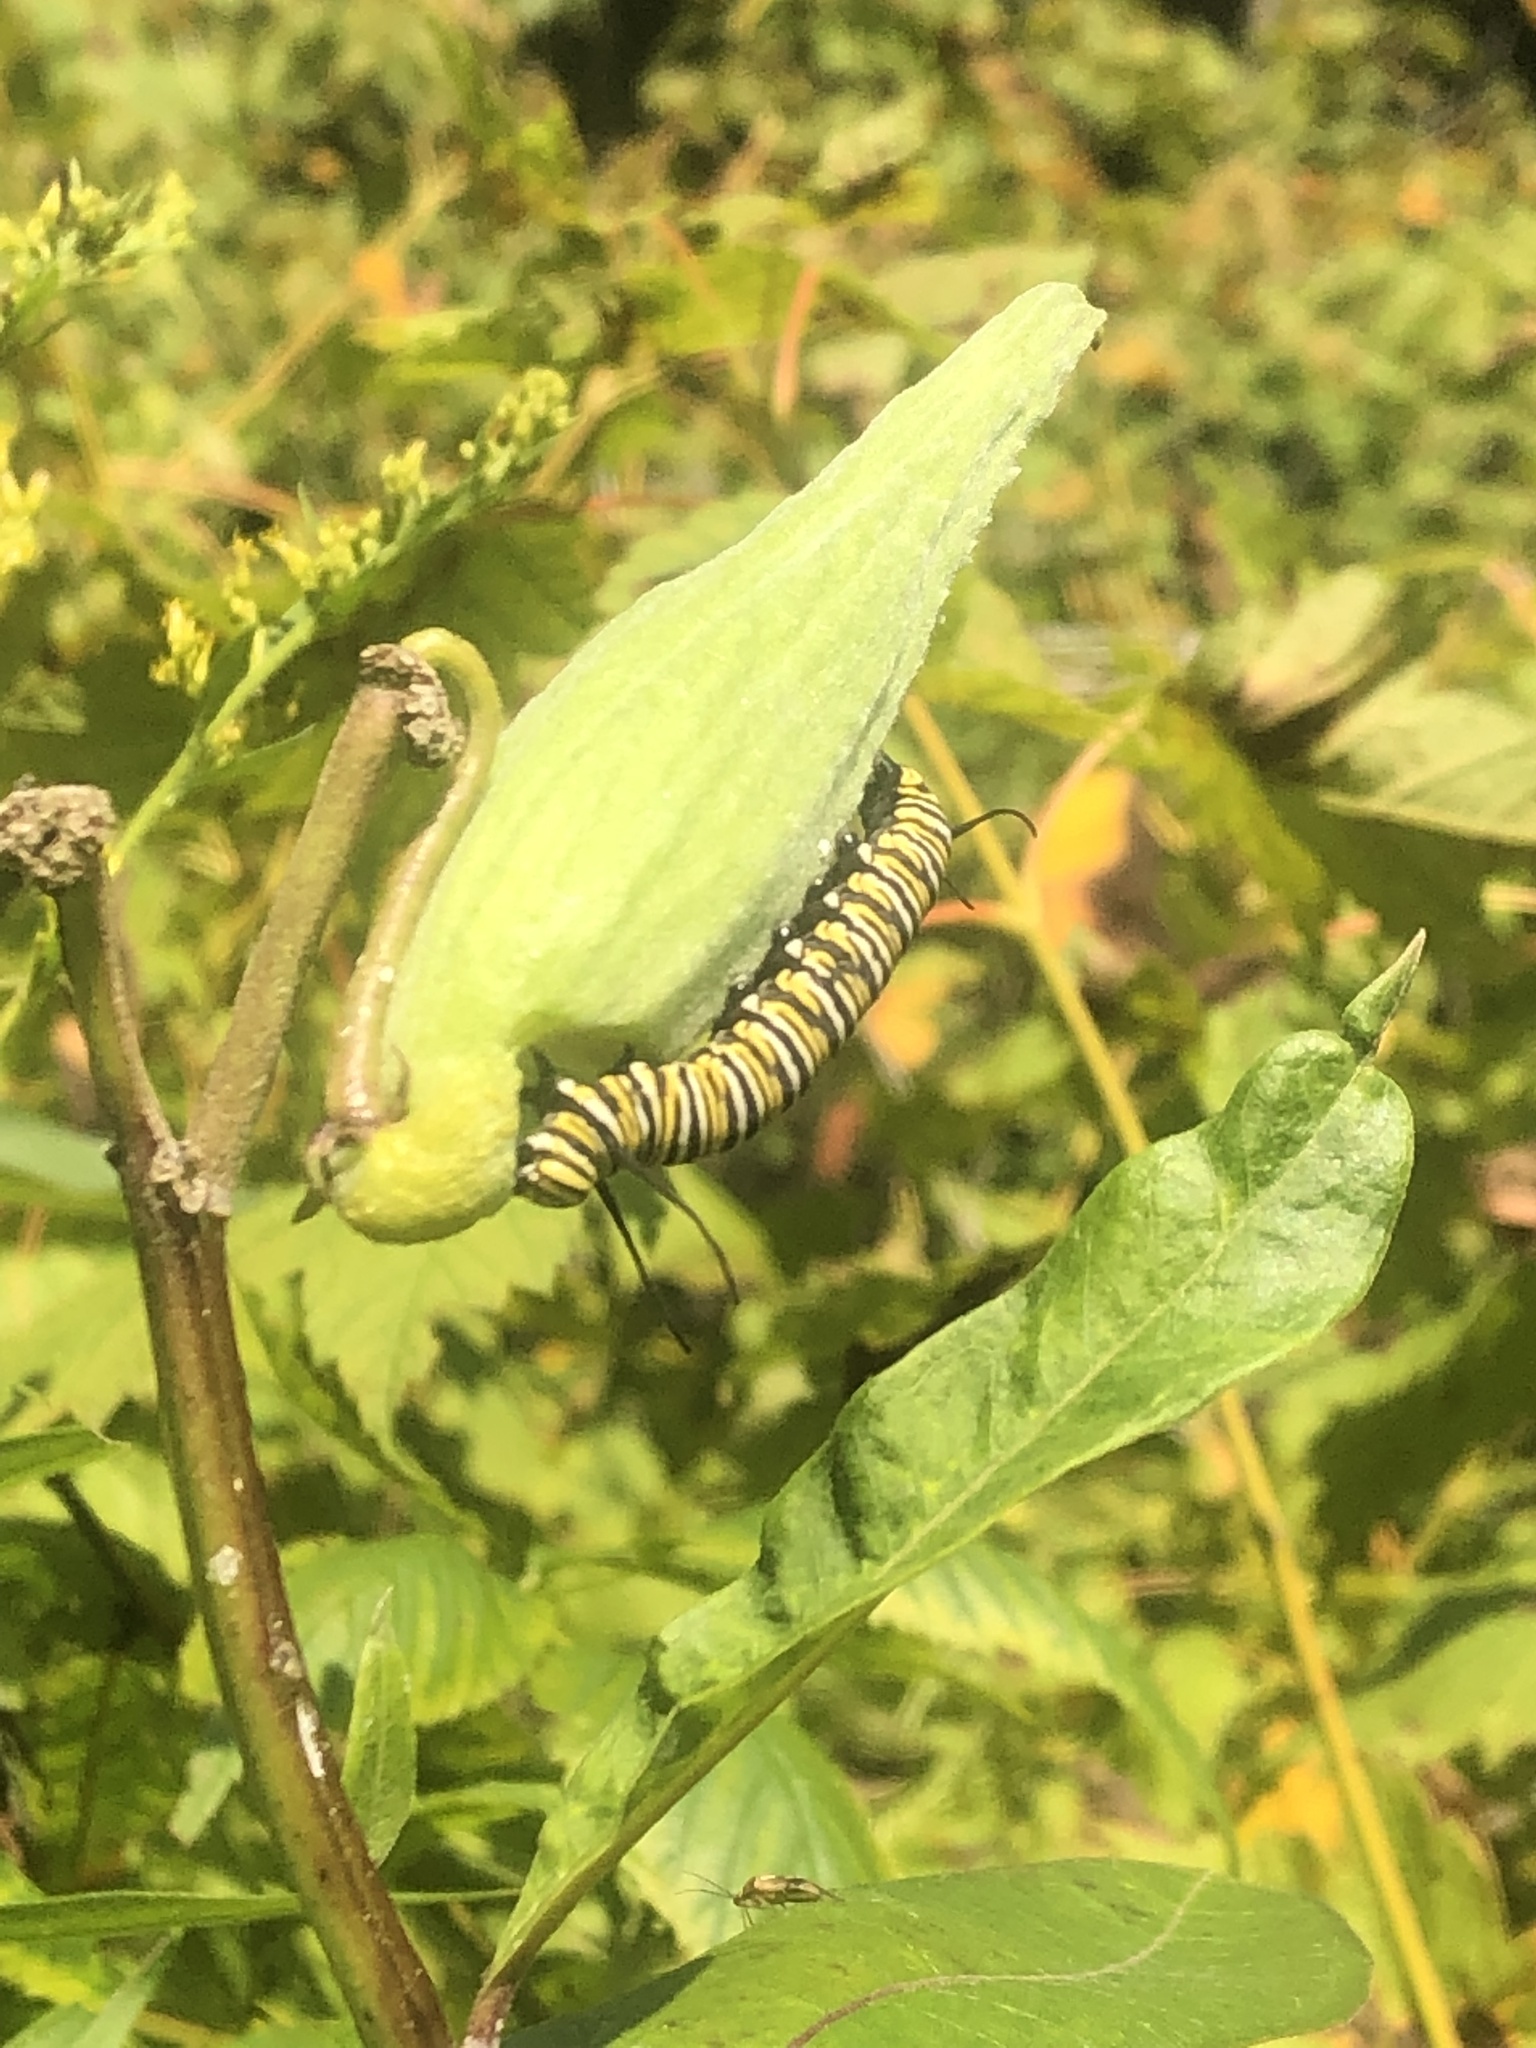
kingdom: Animalia
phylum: Arthropoda
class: Insecta
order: Lepidoptera
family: Nymphalidae
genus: Danaus
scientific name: Danaus plexippus
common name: Monarch
